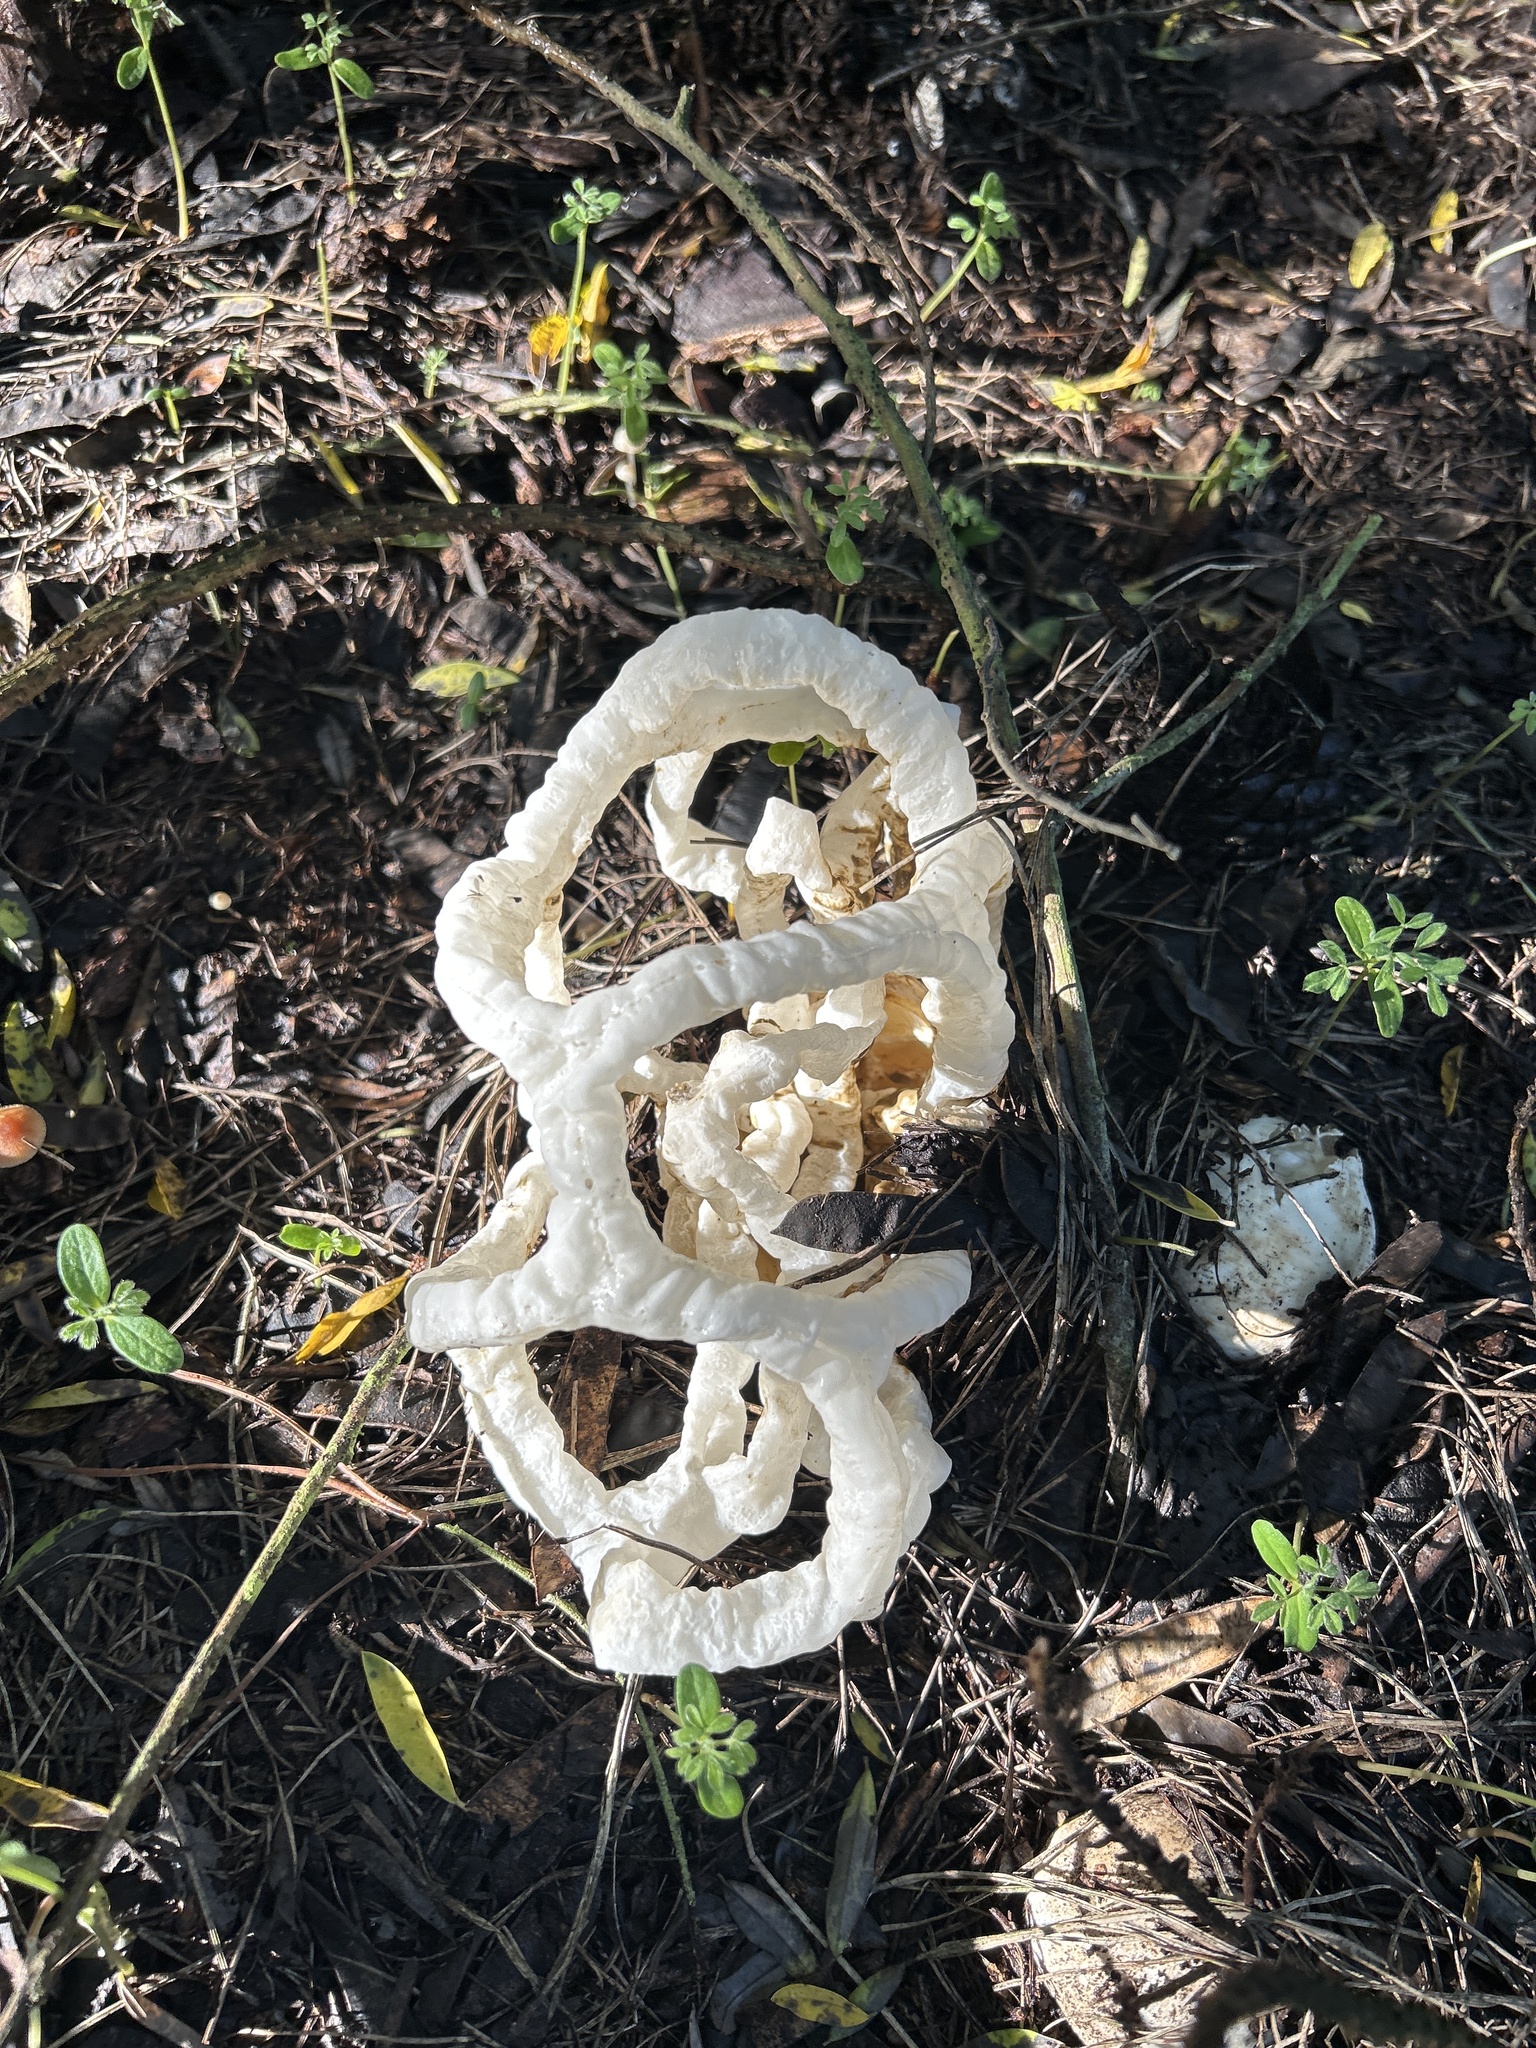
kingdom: Fungi
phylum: Basidiomycota
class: Agaricomycetes
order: Phallales
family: Phallaceae
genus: Ileodictyon
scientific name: Ileodictyon cibarium
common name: Basket fungus
